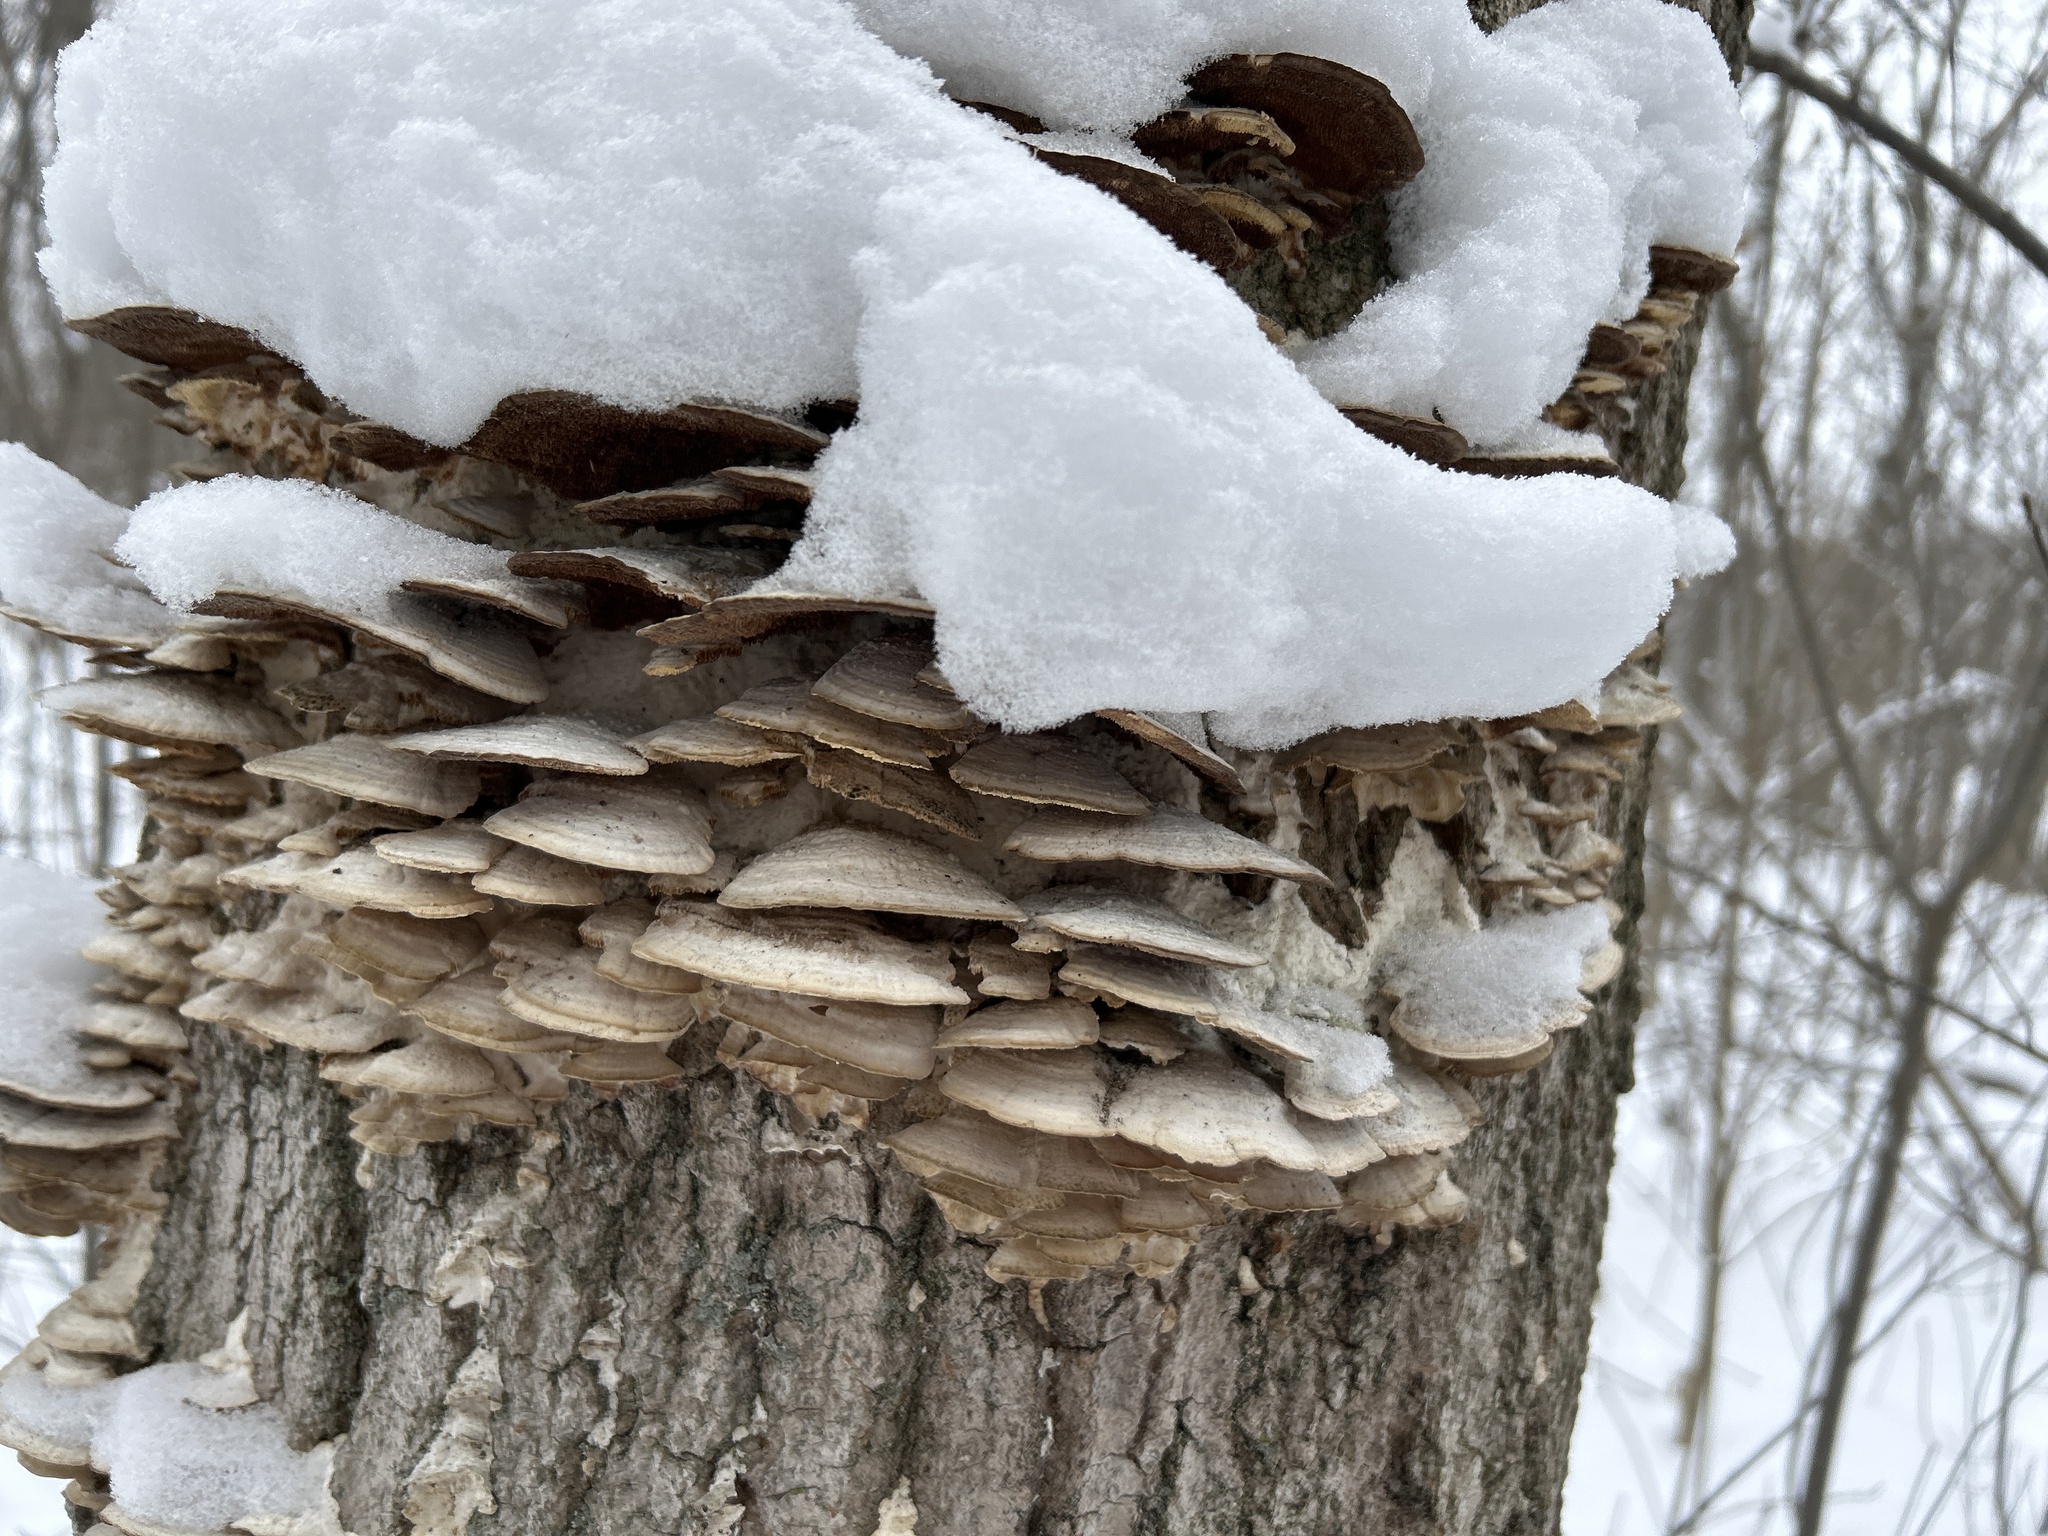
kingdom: Fungi
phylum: Basidiomycota
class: Agaricomycetes
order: Hymenochaetales
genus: Trichaptum
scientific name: Trichaptum biforme
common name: Violet-toothed polypore
